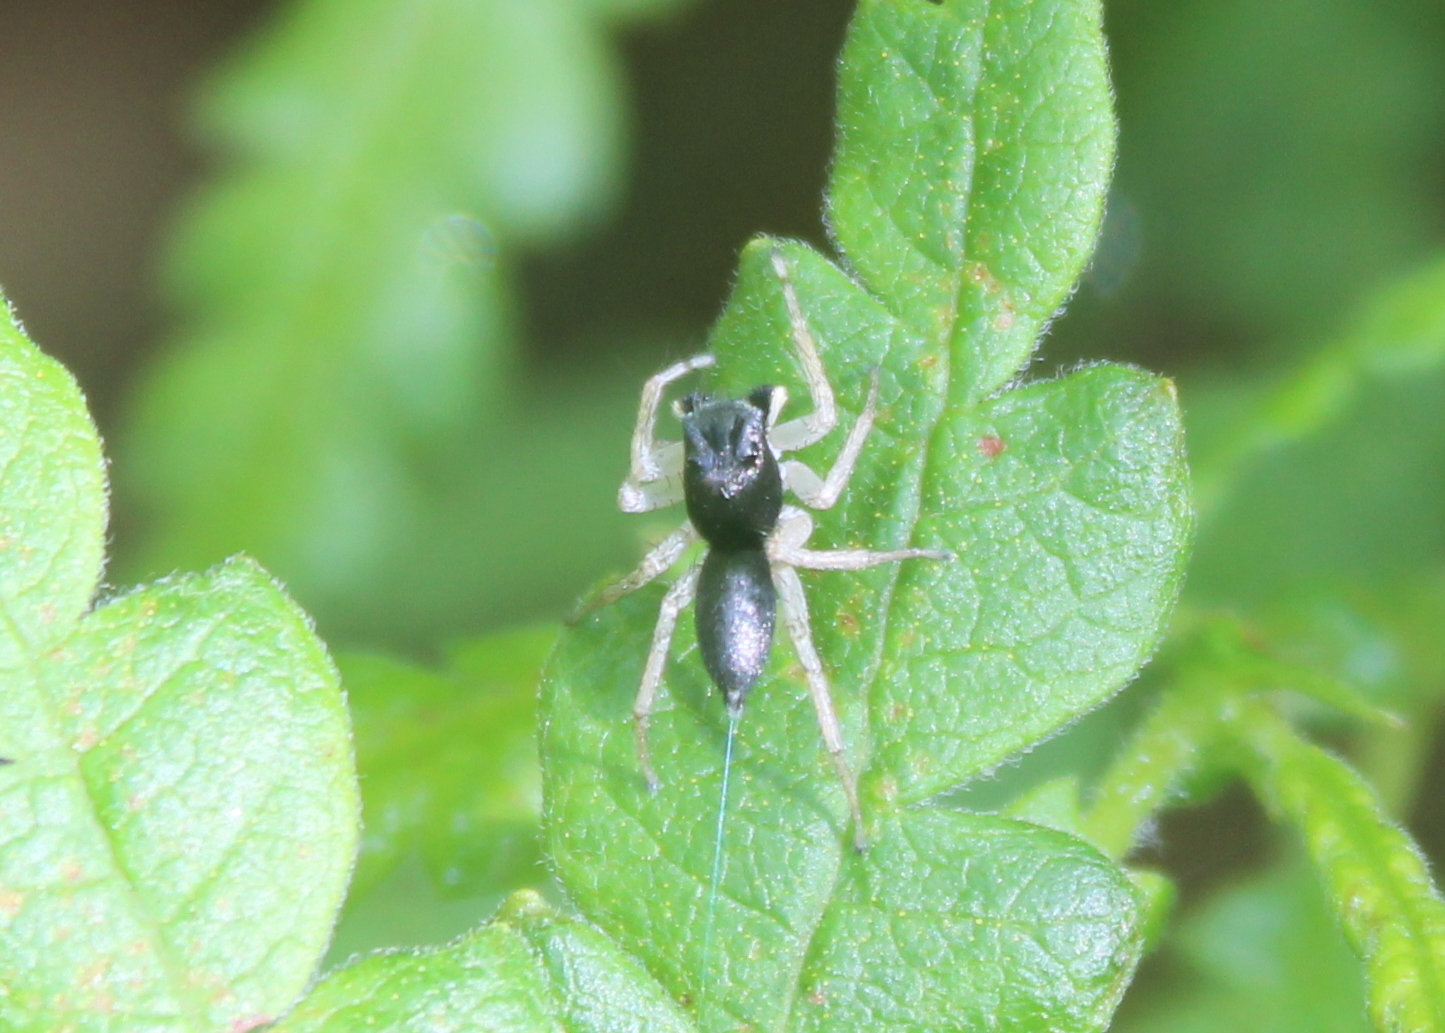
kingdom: Animalia
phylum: Arthropoda
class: Arachnida
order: Araneae
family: Salticidae
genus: Maevia
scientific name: Maevia inclemens
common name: Dimorphic jumper
